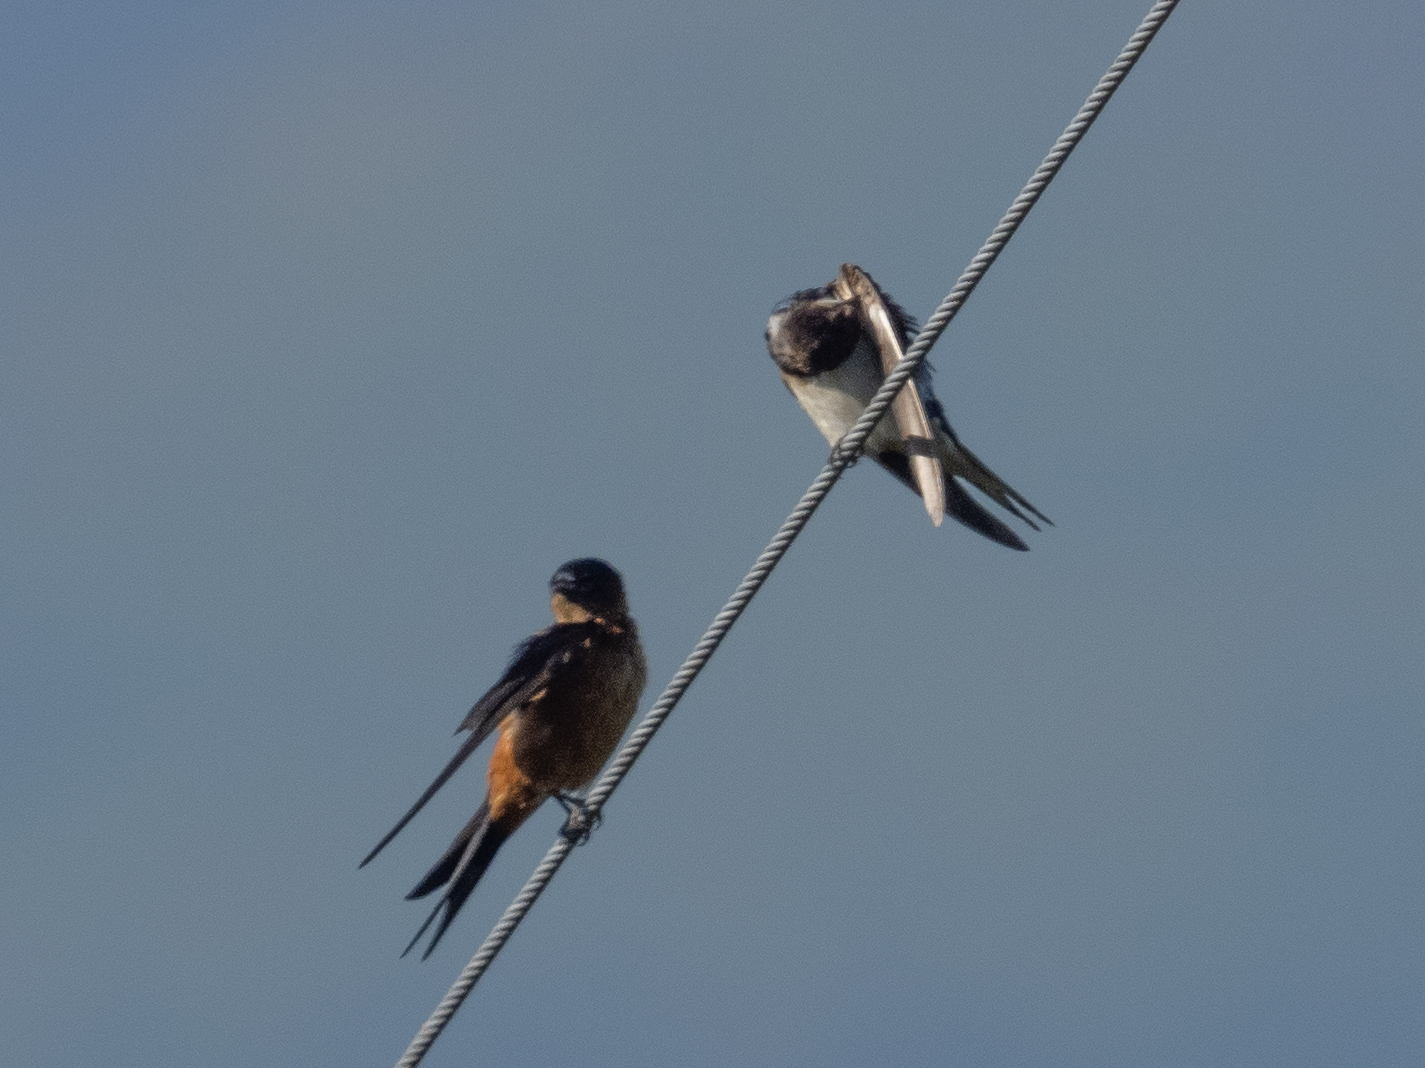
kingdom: Animalia
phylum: Chordata
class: Aves
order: Passeriformes
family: Hirundinidae
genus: Cecropis
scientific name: Cecropis hyperythra
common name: Sri lanka swallow
